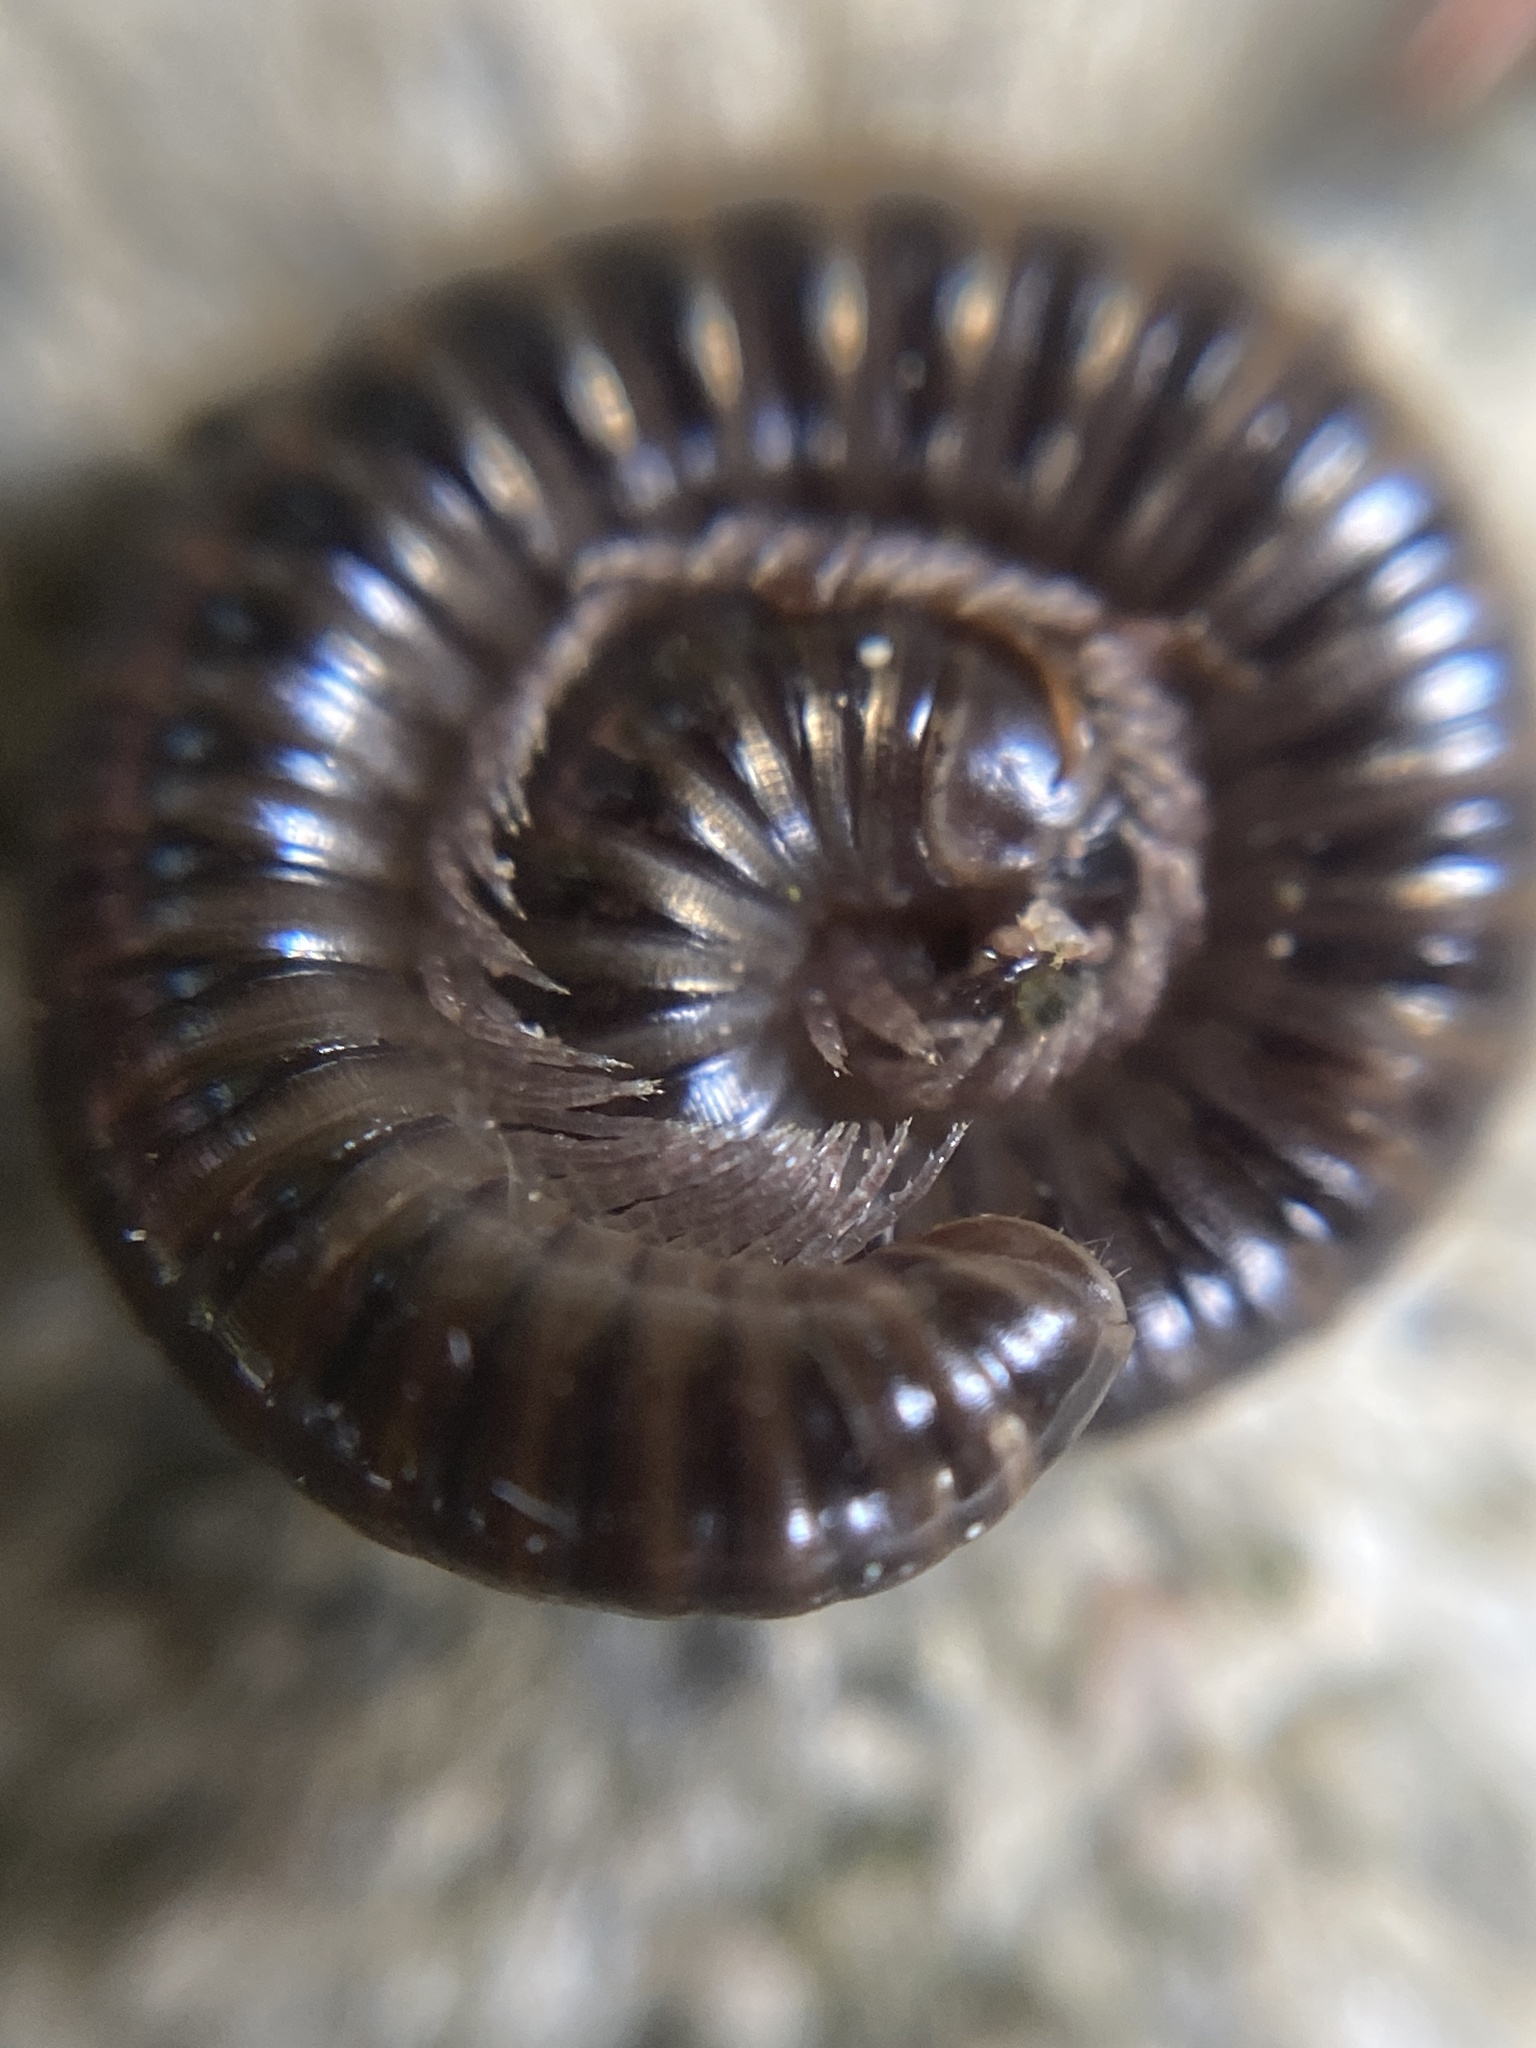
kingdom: Animalia
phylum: Arthropoda
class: Diplopoda
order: Julida
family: Julidae
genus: Cylindroiulus
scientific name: Cylindroiulus caeruleocinctus
